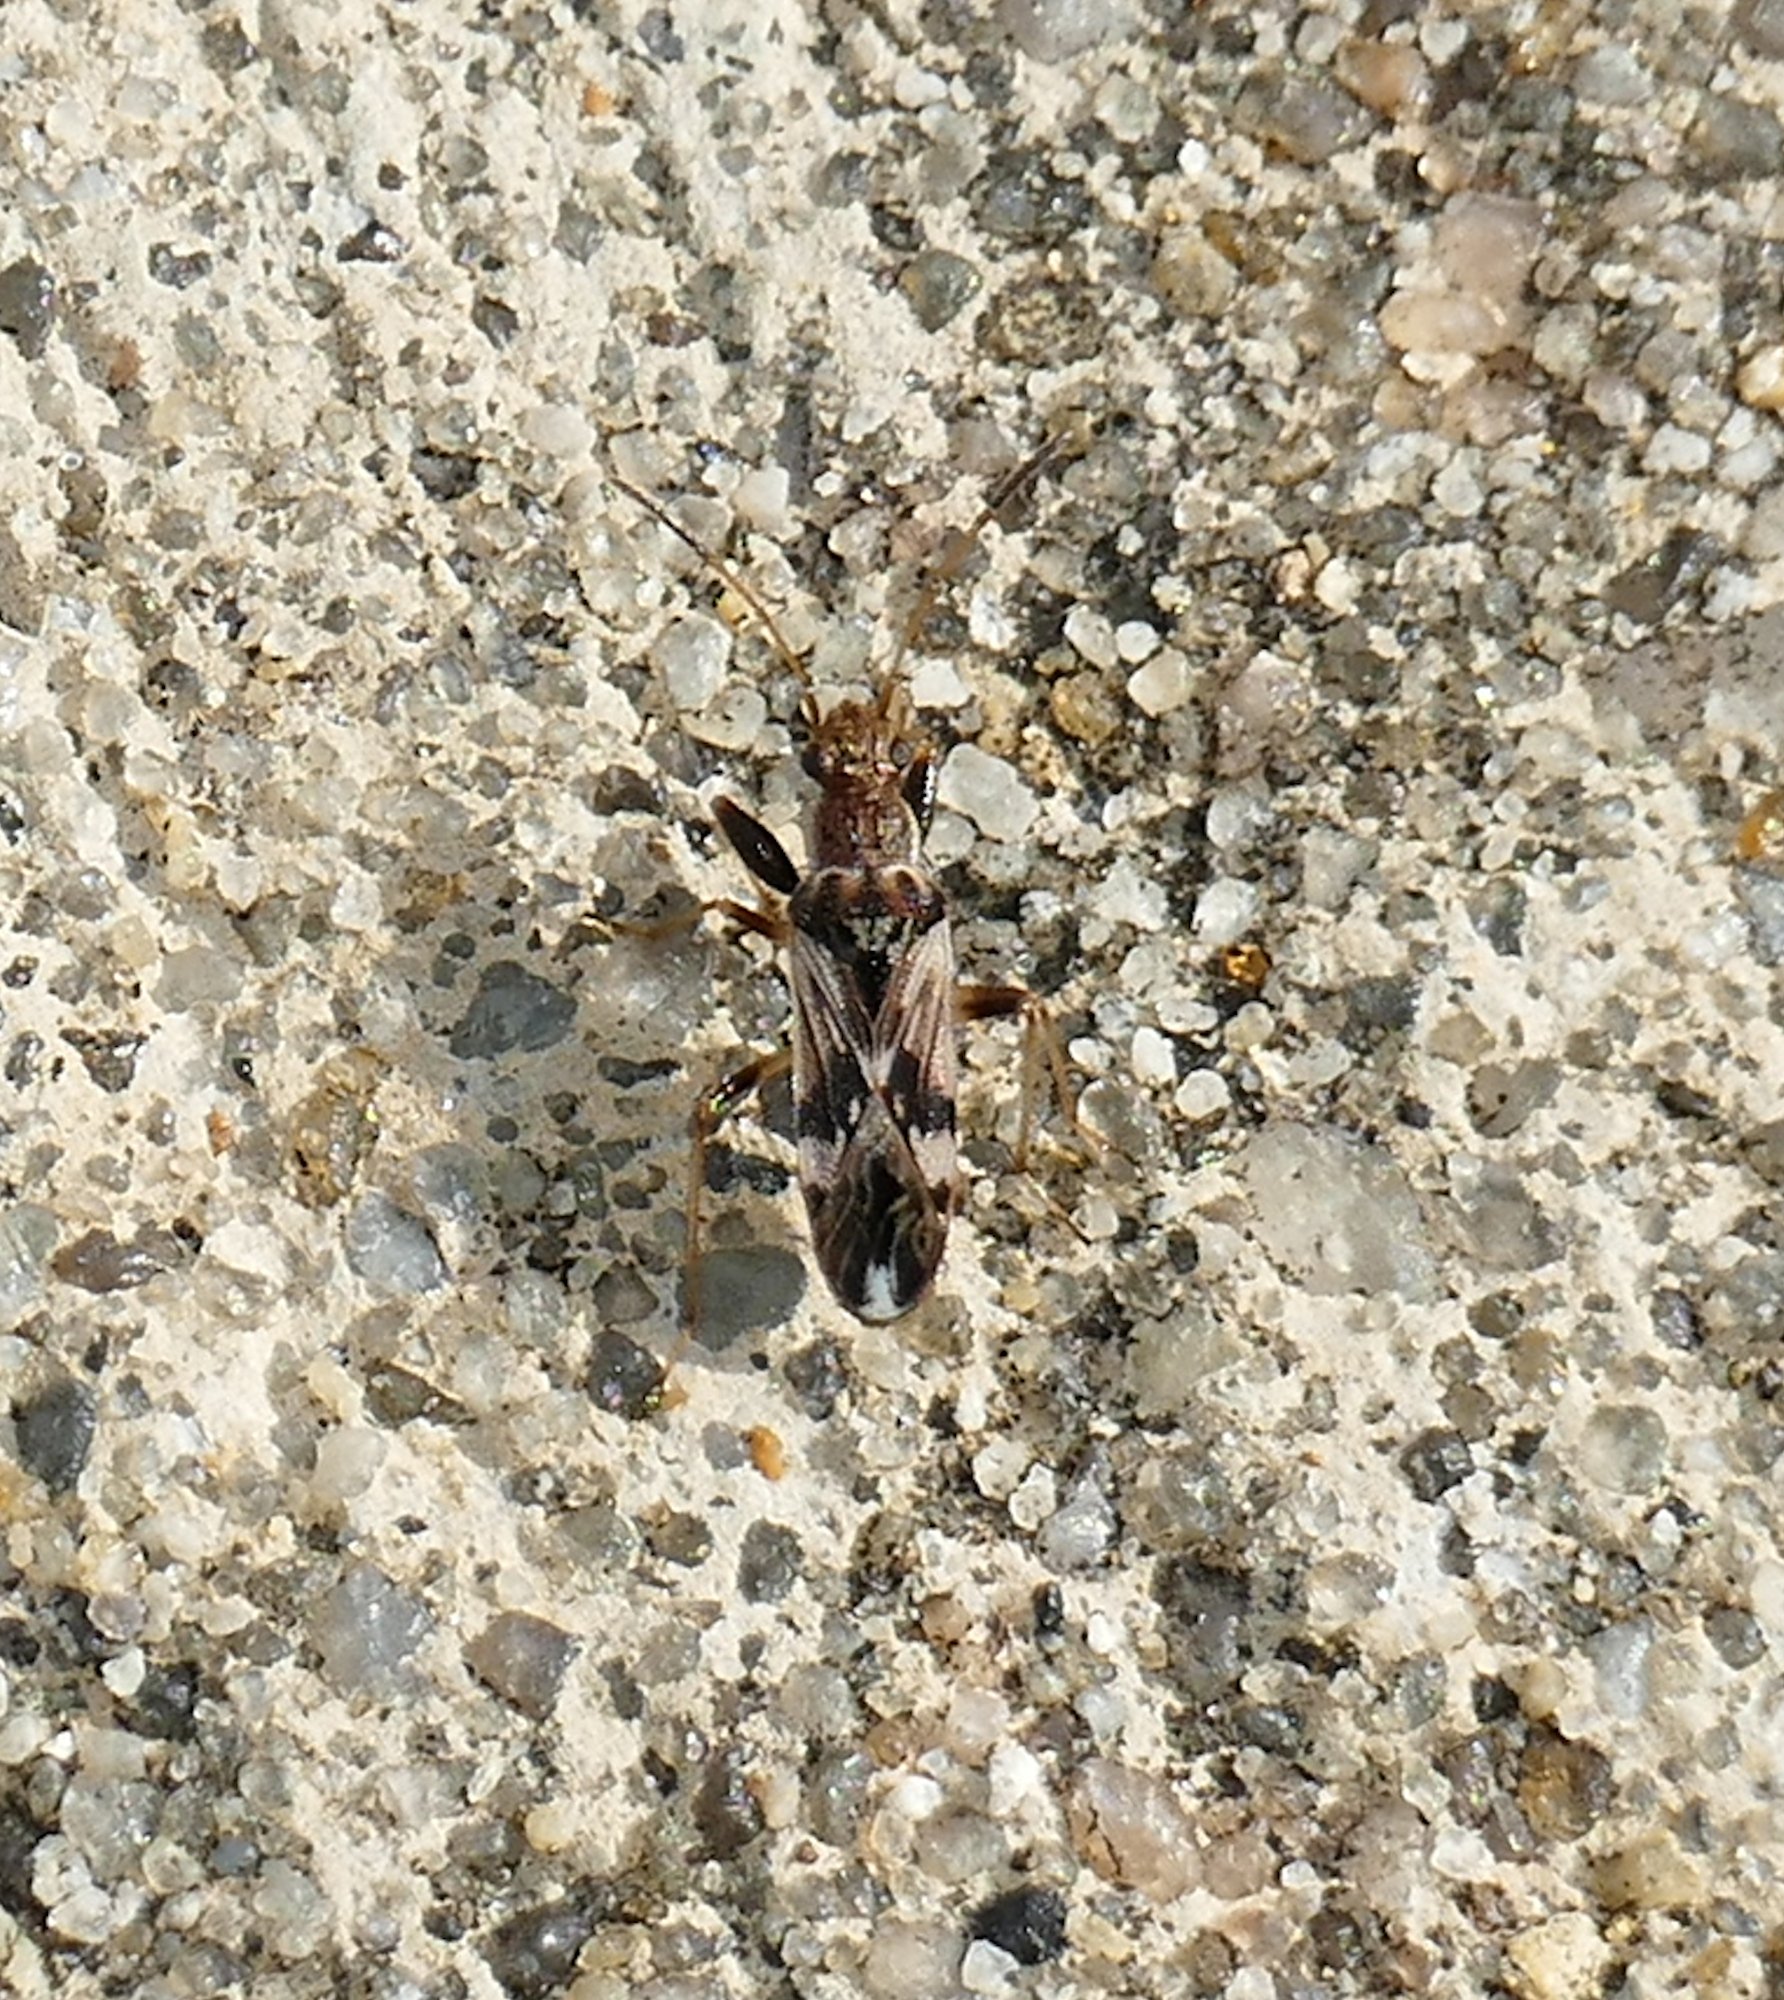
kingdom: Animalia
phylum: Arthropoda
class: Insecta
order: Hemiptera
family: Rhyparochromidae
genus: Neopamera
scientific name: Neopamera bilobata
